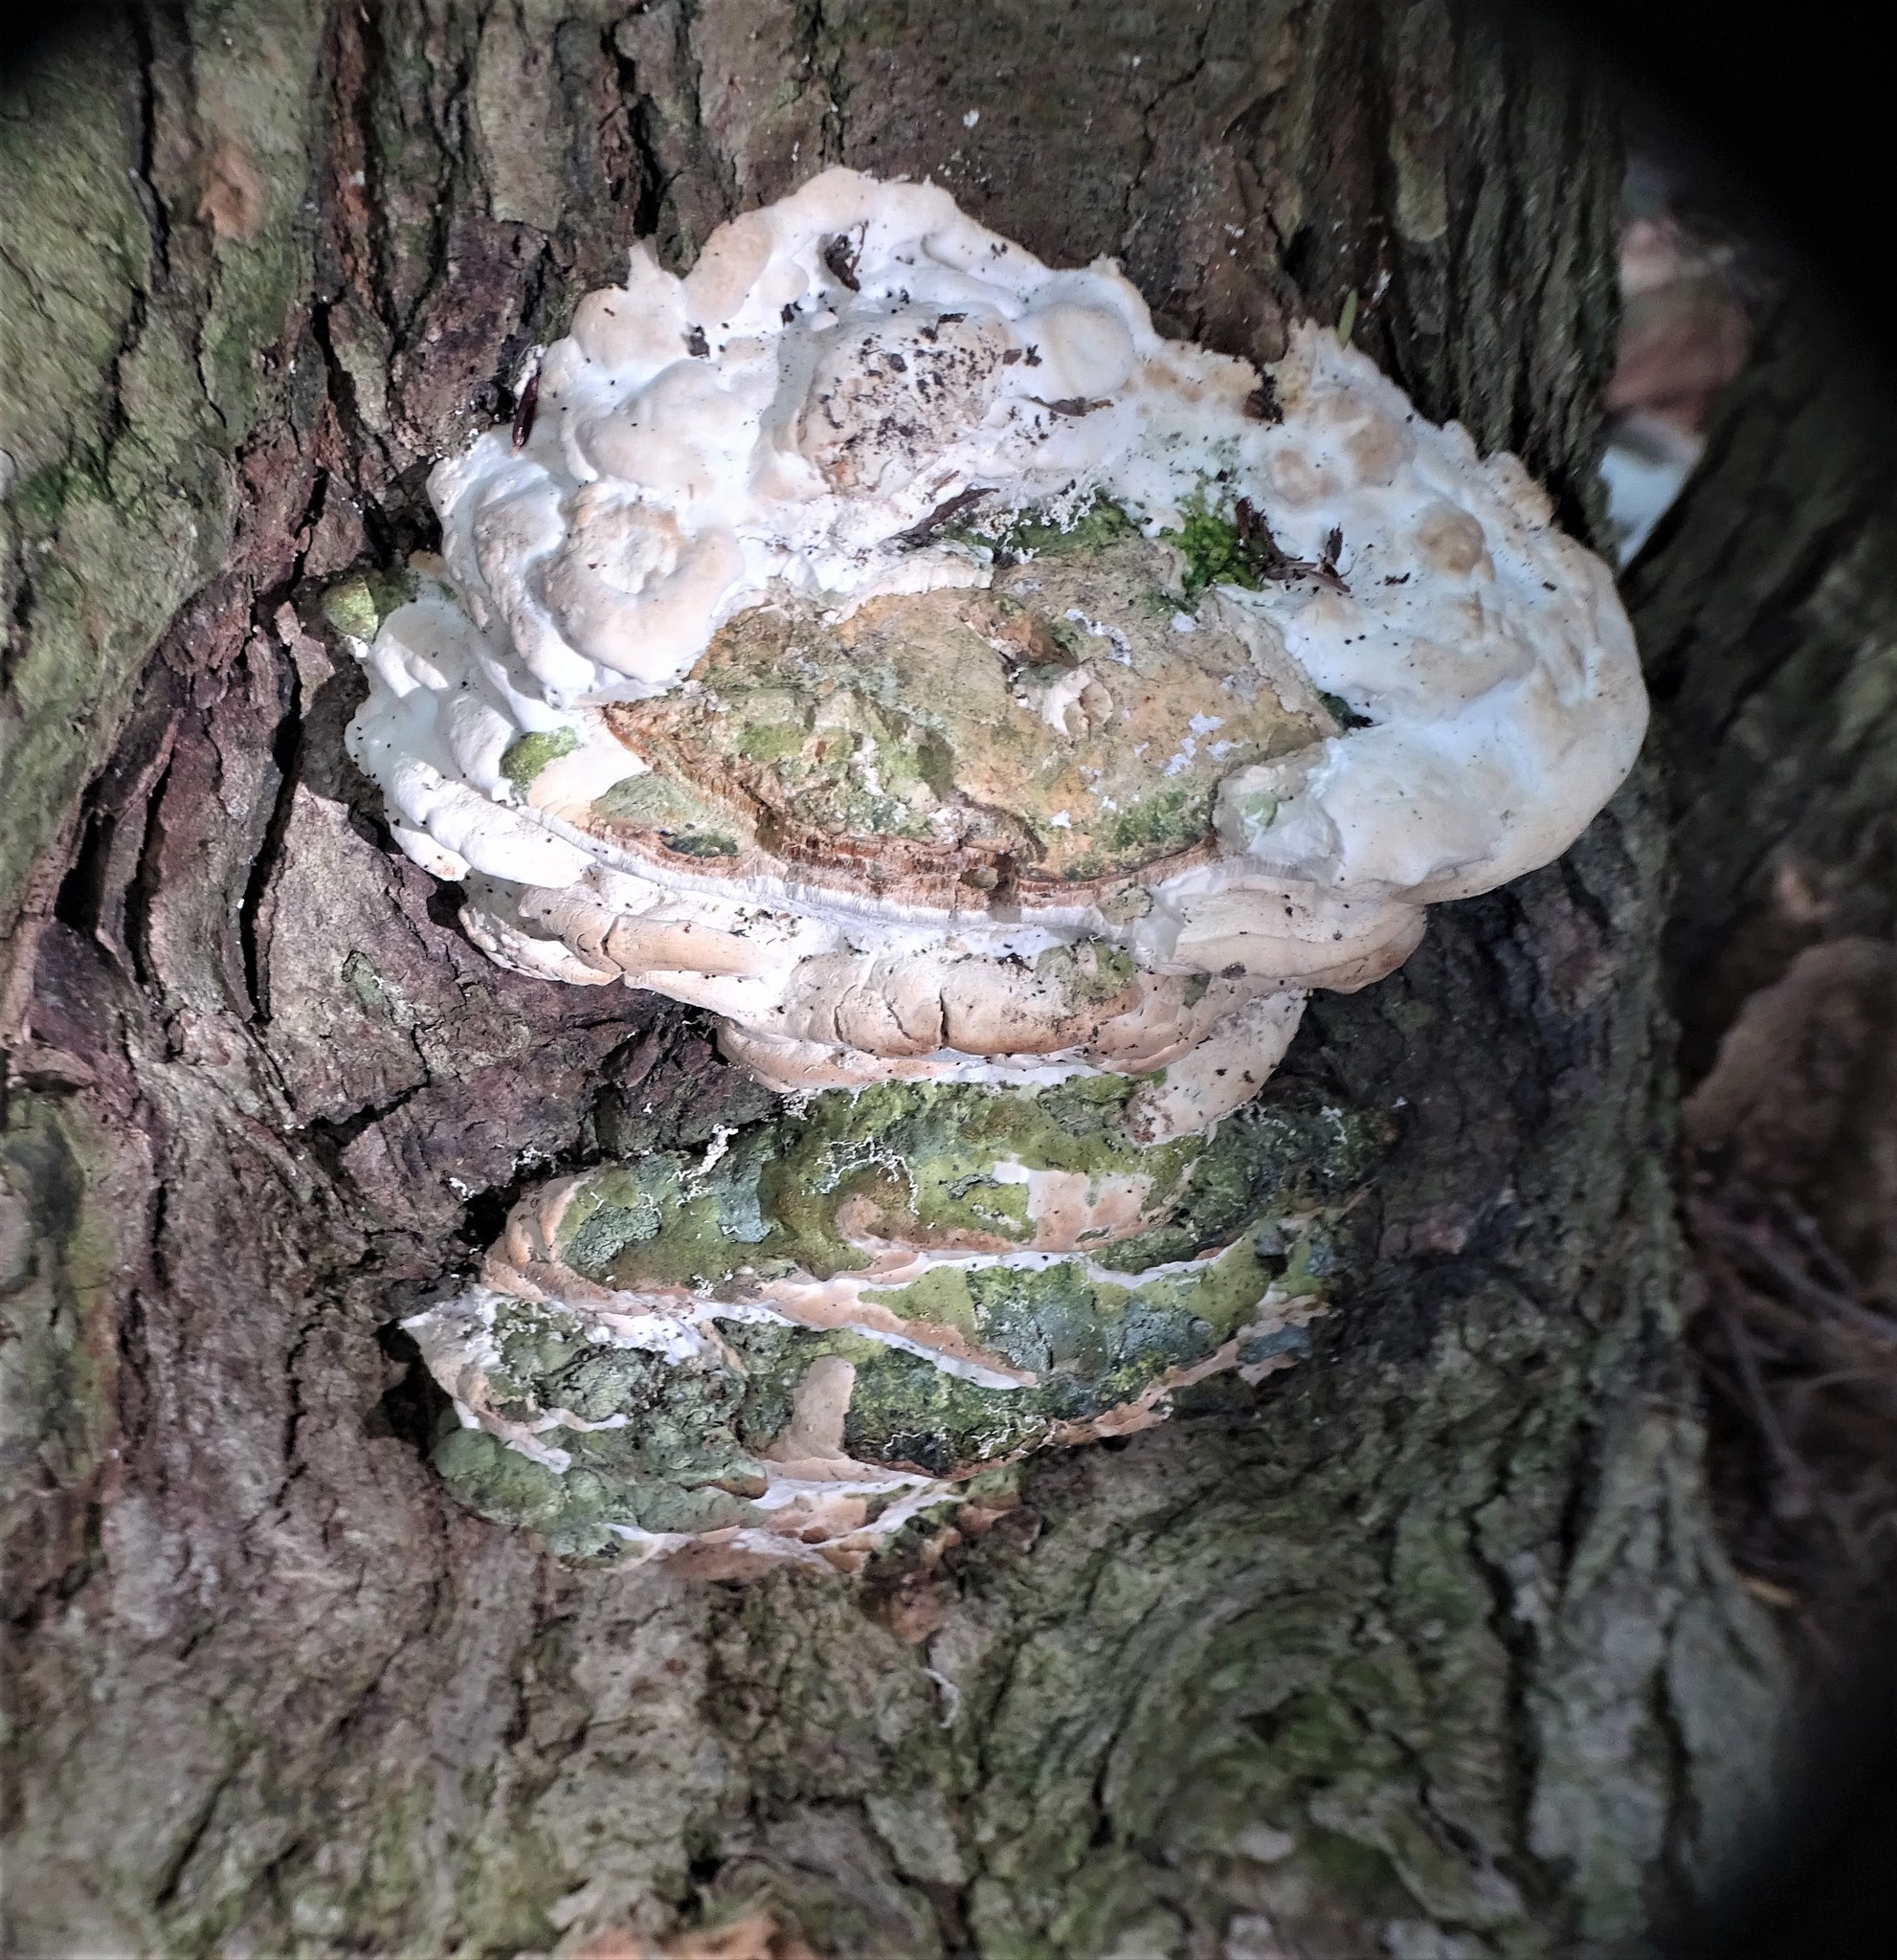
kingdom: Fungi
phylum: Basidiomycota
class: Agaricomycetes
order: Hymenochaetales
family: Oxyporaceae
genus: Oxyporus
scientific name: Oxyporus populinus
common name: Poplar bracket
